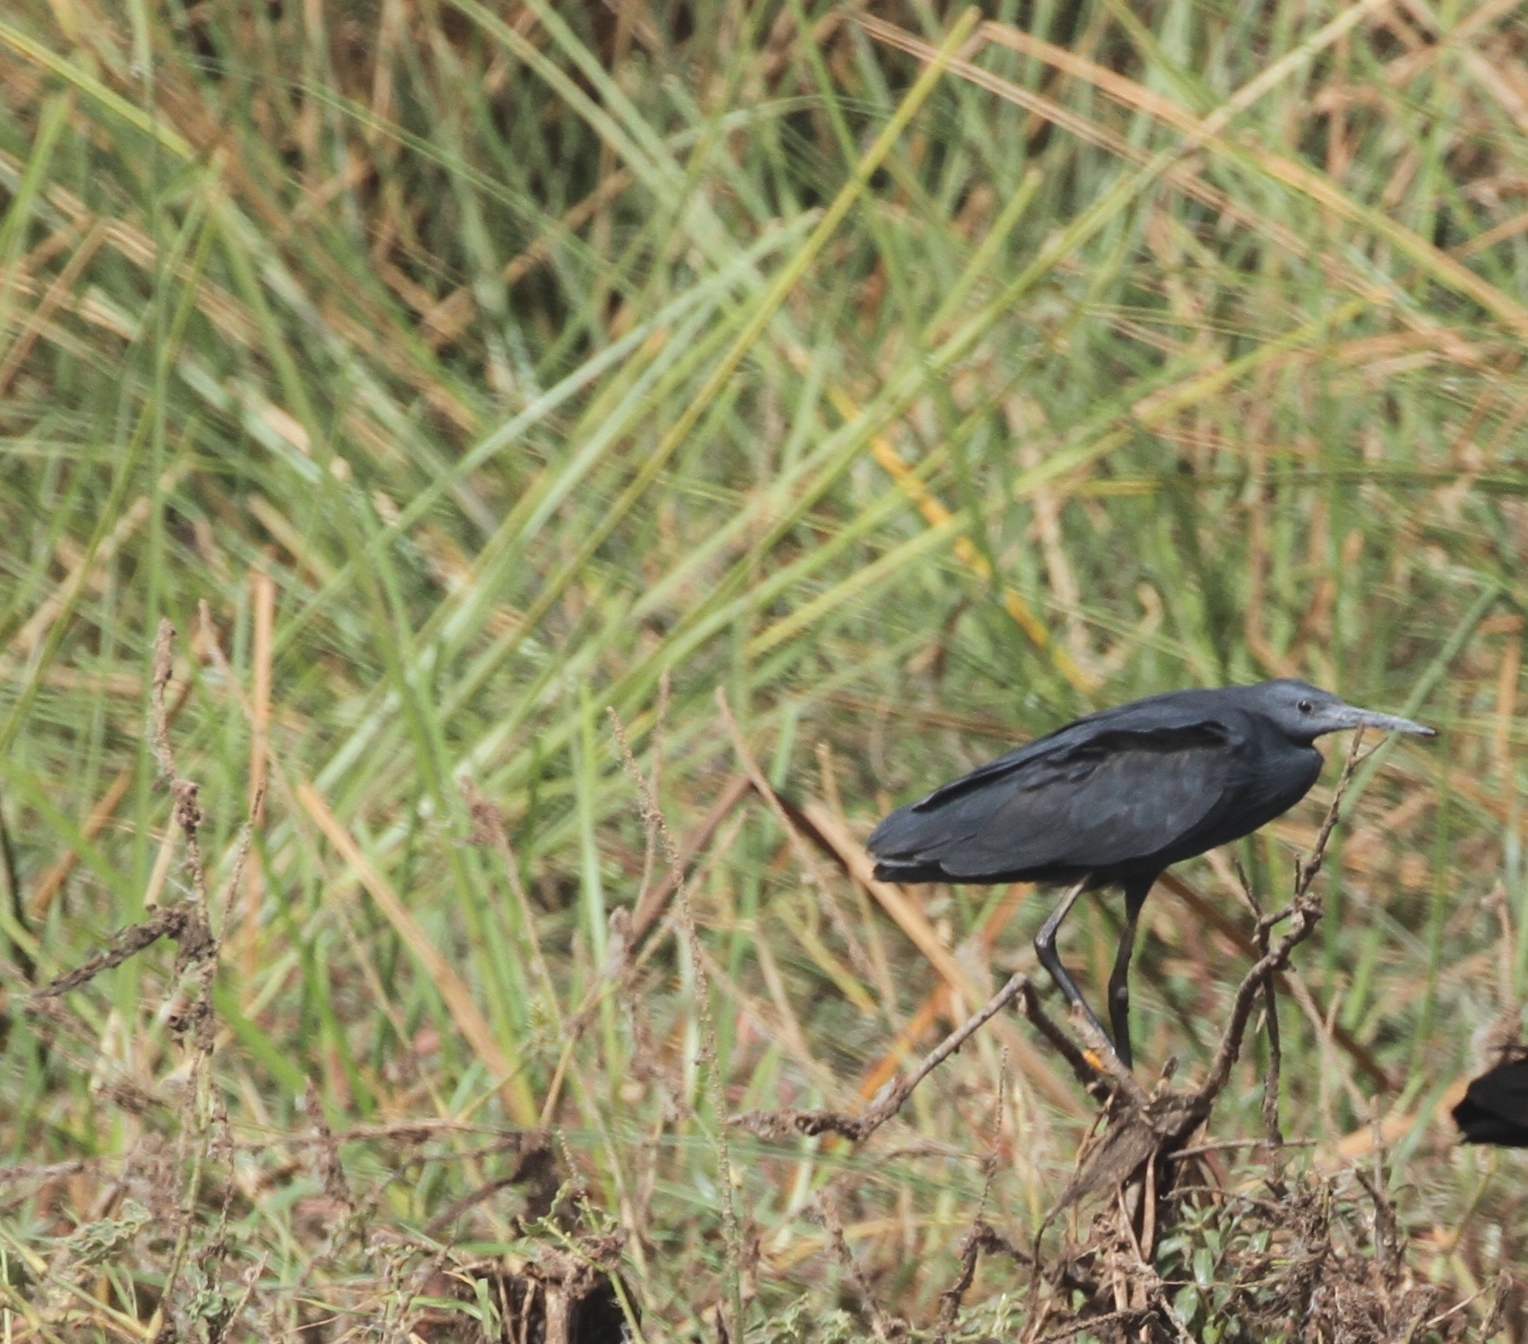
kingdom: Animalia
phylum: Chordata
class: Aves
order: Pelecaniformes
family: Ardeidae
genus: Egretta
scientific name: Egretta ardesiaca
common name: Black heron
